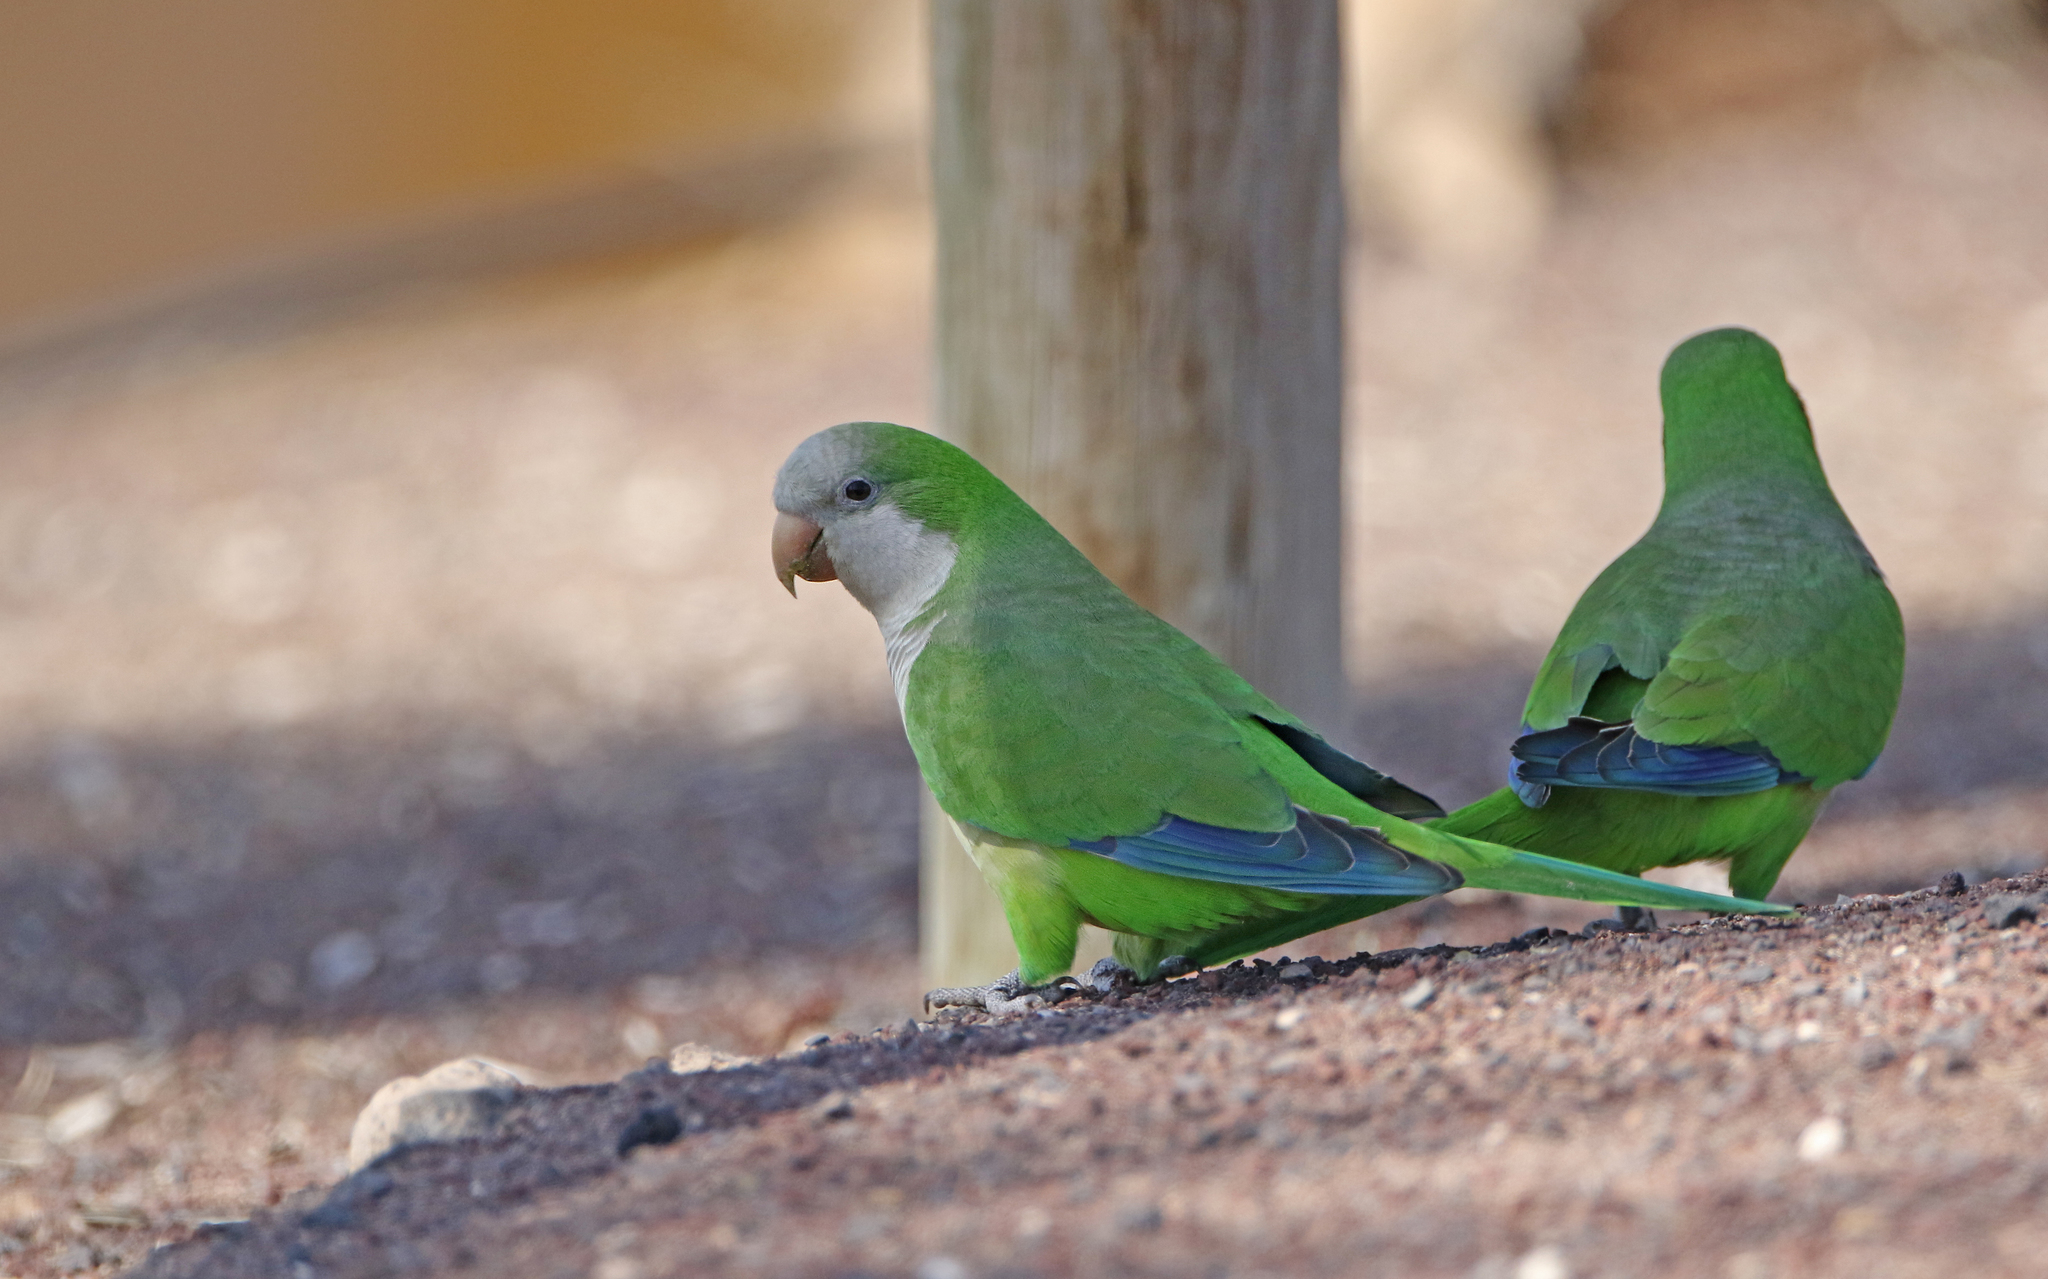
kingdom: Animalia
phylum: Chordata
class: Aves
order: Psittaciformes
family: Psittacidae
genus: Myiopsitta
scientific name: Myiopsitta monachus
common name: Monk parakeet
